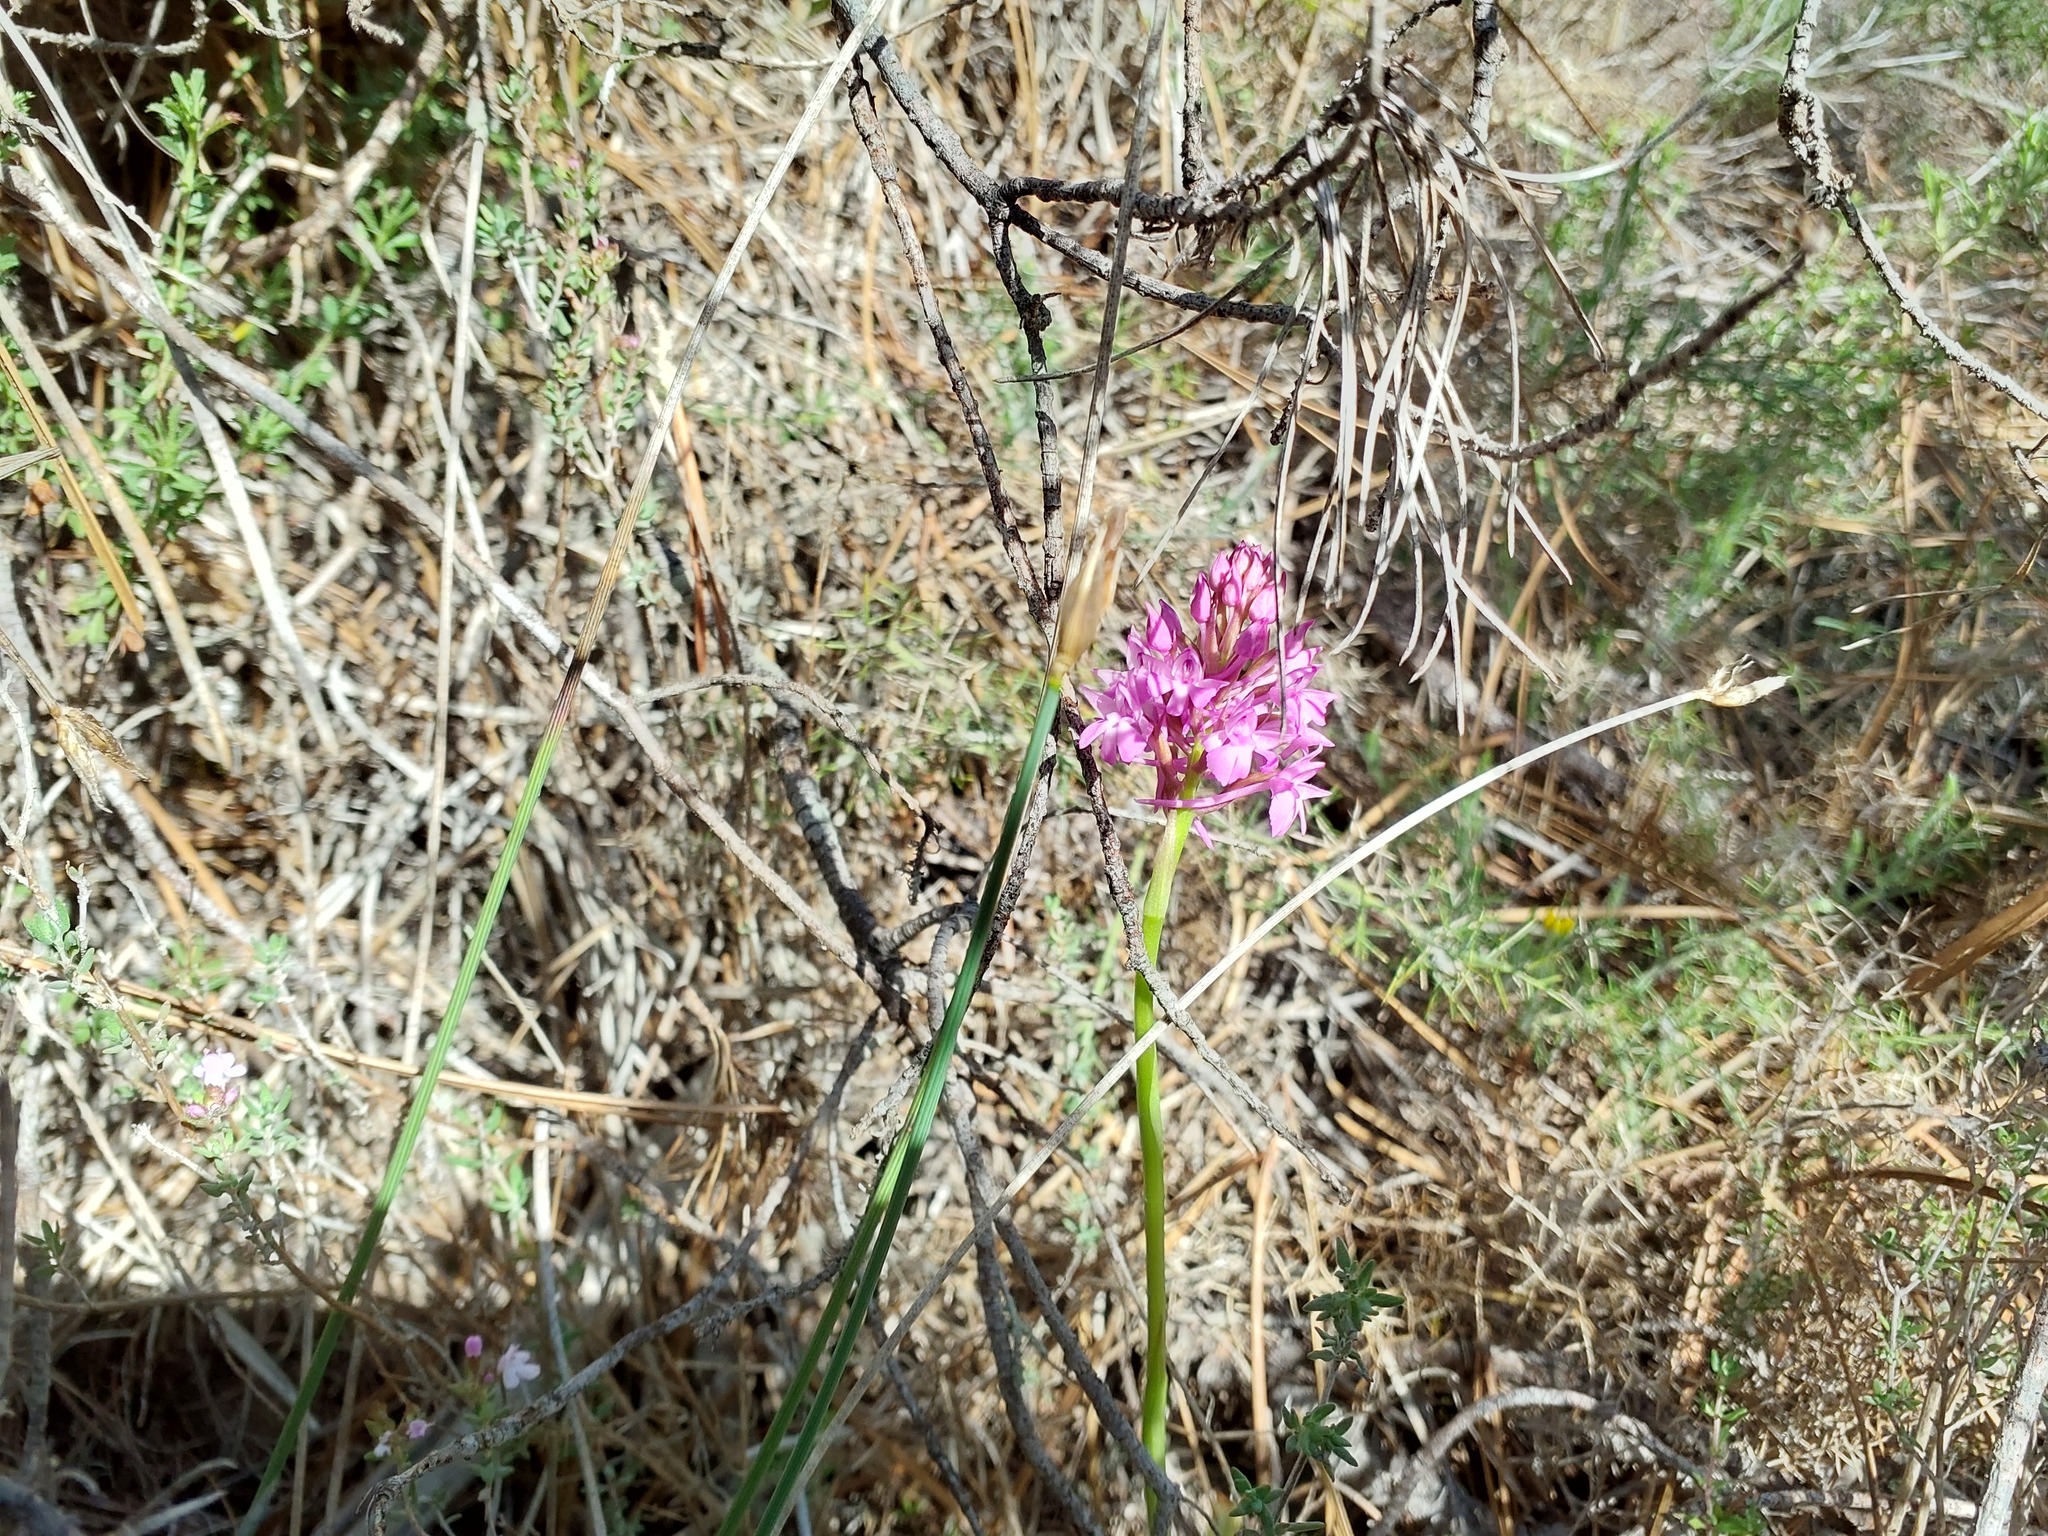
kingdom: Plantae
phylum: Tracheophyta
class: Liliopsida
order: Asparagales
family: Orchidaceae
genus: Anacamptis
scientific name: Anacamptis pyramidalis
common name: Pyramidal orchid
